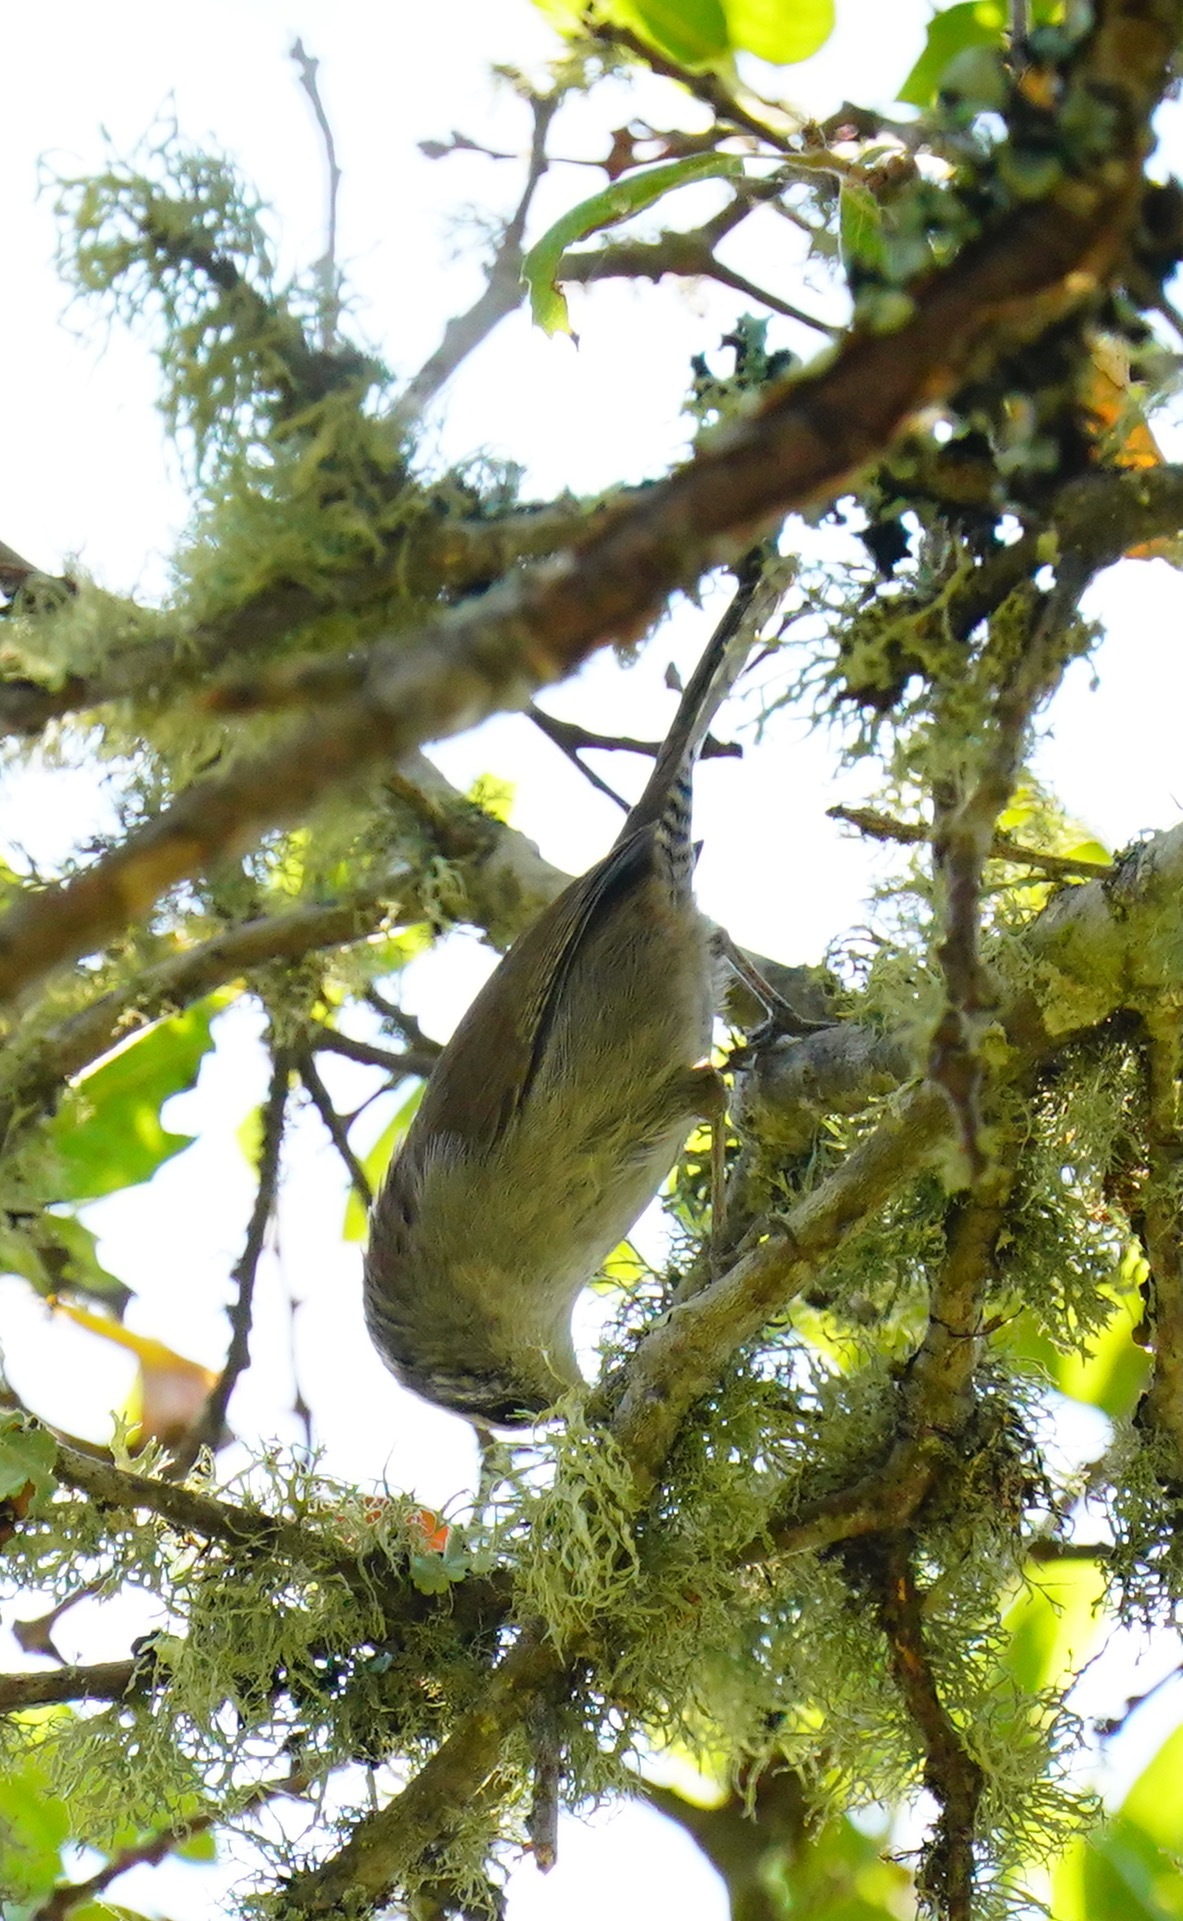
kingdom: Animalia
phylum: Chordata
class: Aves
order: Passeriformes
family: Troglodytidae
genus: Thryomanes
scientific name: Thryomanes bewickii
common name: Bewick's wren
